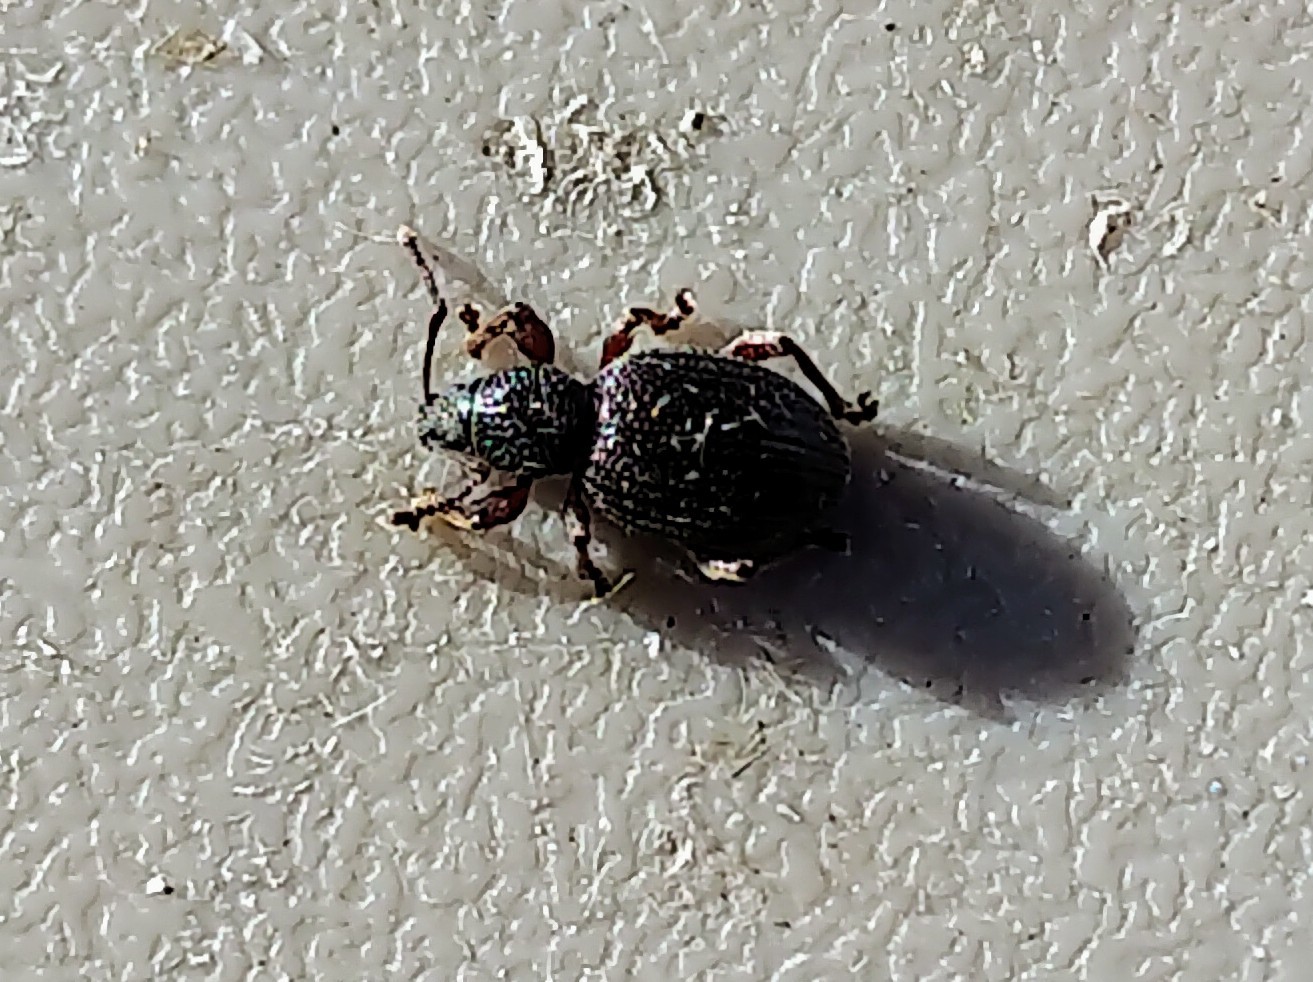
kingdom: Animalia
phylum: Arthropoda
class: Insecta
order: Coleoptera
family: Curculionidae
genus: Otiorhynchus
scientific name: Otiorhynchus ovatus
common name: Strawberry root weevil
